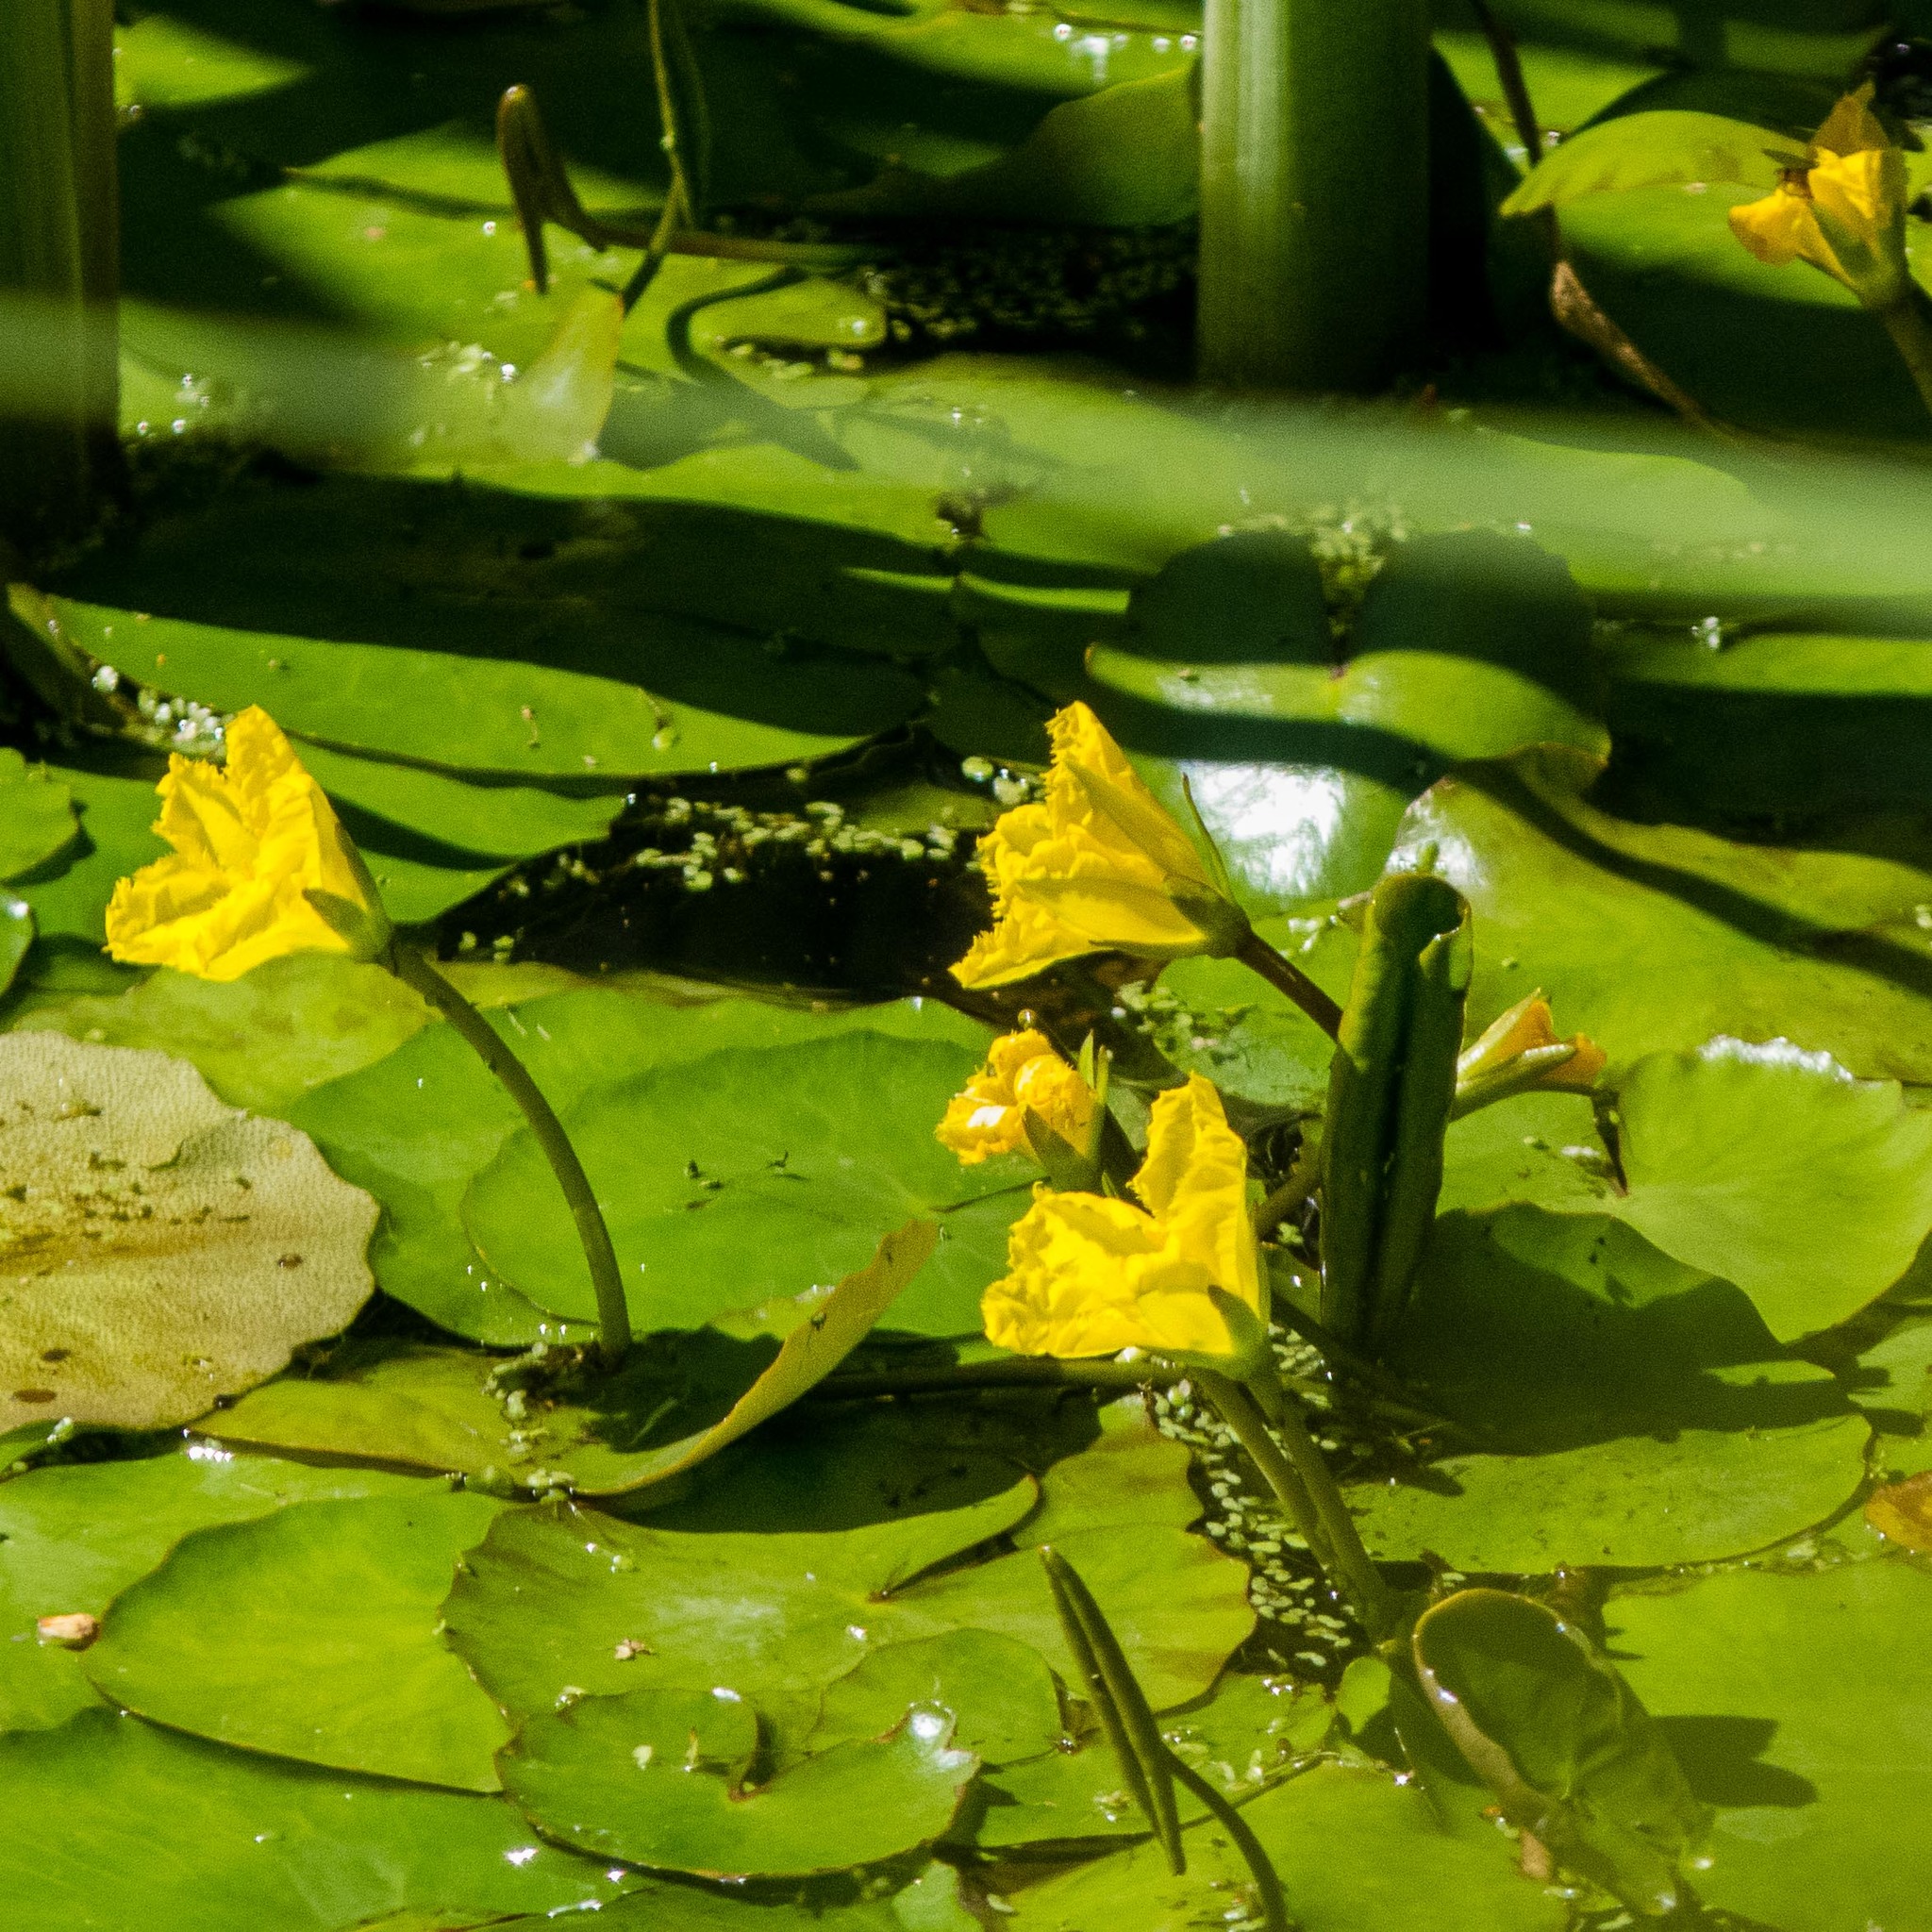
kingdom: Plantae
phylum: Tracheophyta
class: Magnoliopsida
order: Asterales
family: Menyanthaceae
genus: Nymphoides
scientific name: Nymphoides peltata
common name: Fringed water-lily
